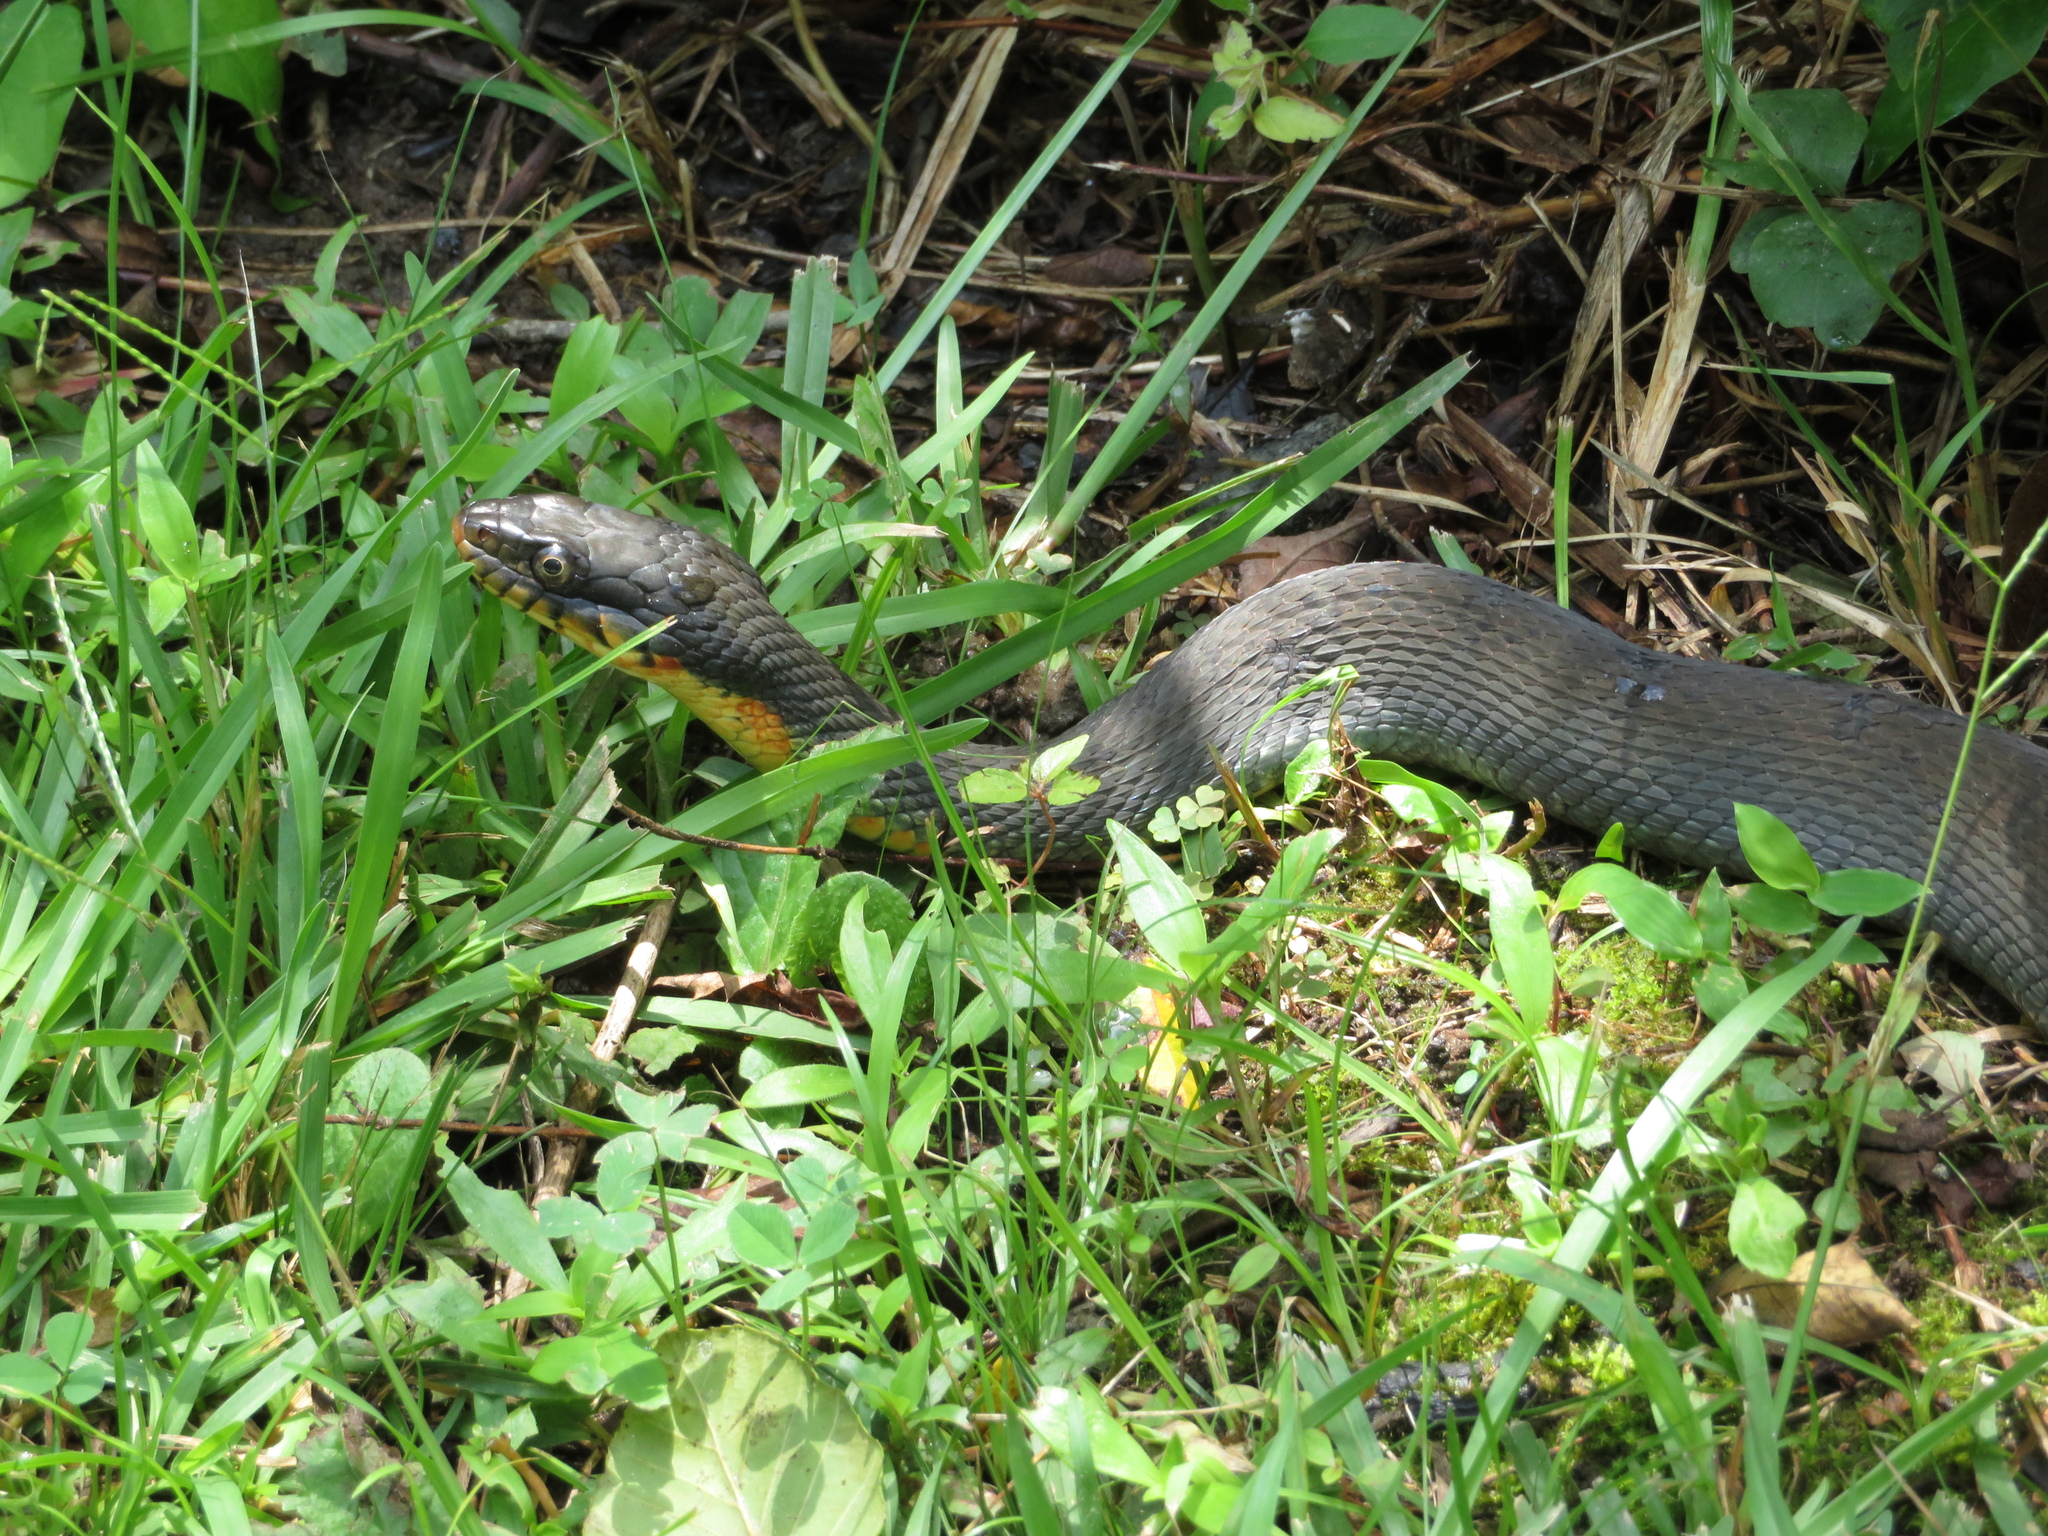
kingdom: Animalia
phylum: Chordata
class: Squamata
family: Colubridae
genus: Nerodia
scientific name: Nerodia erythrogaster
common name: Plainbelly water snake
